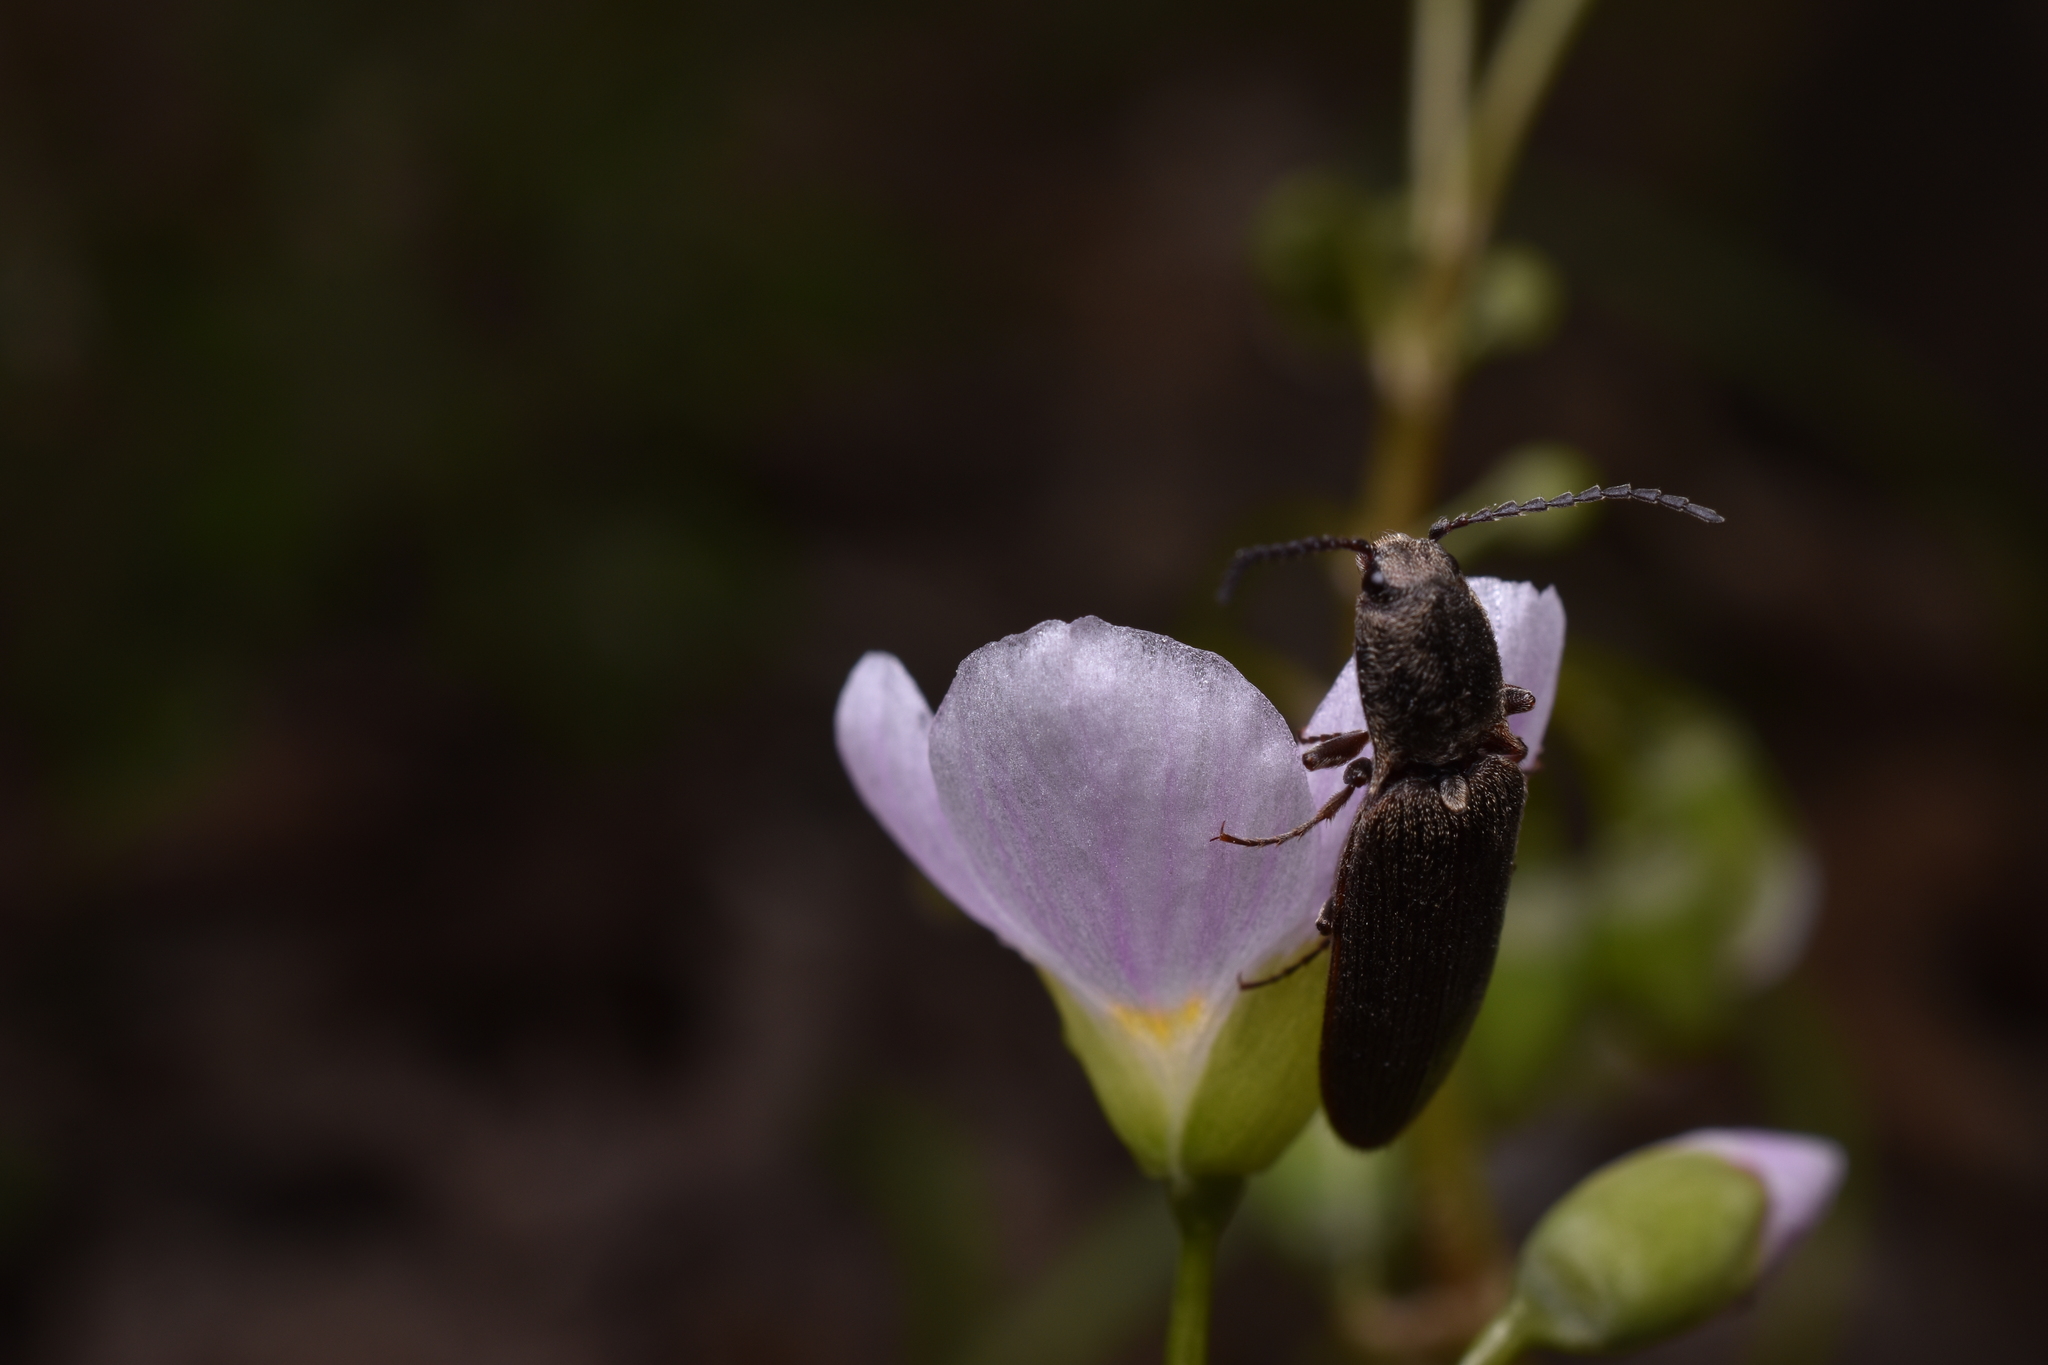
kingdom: Animalia
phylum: Arthropoda
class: Insecta
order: Coleoptera
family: Elateridae
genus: Sylvanelater
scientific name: Sylvanelater cylindriformis
